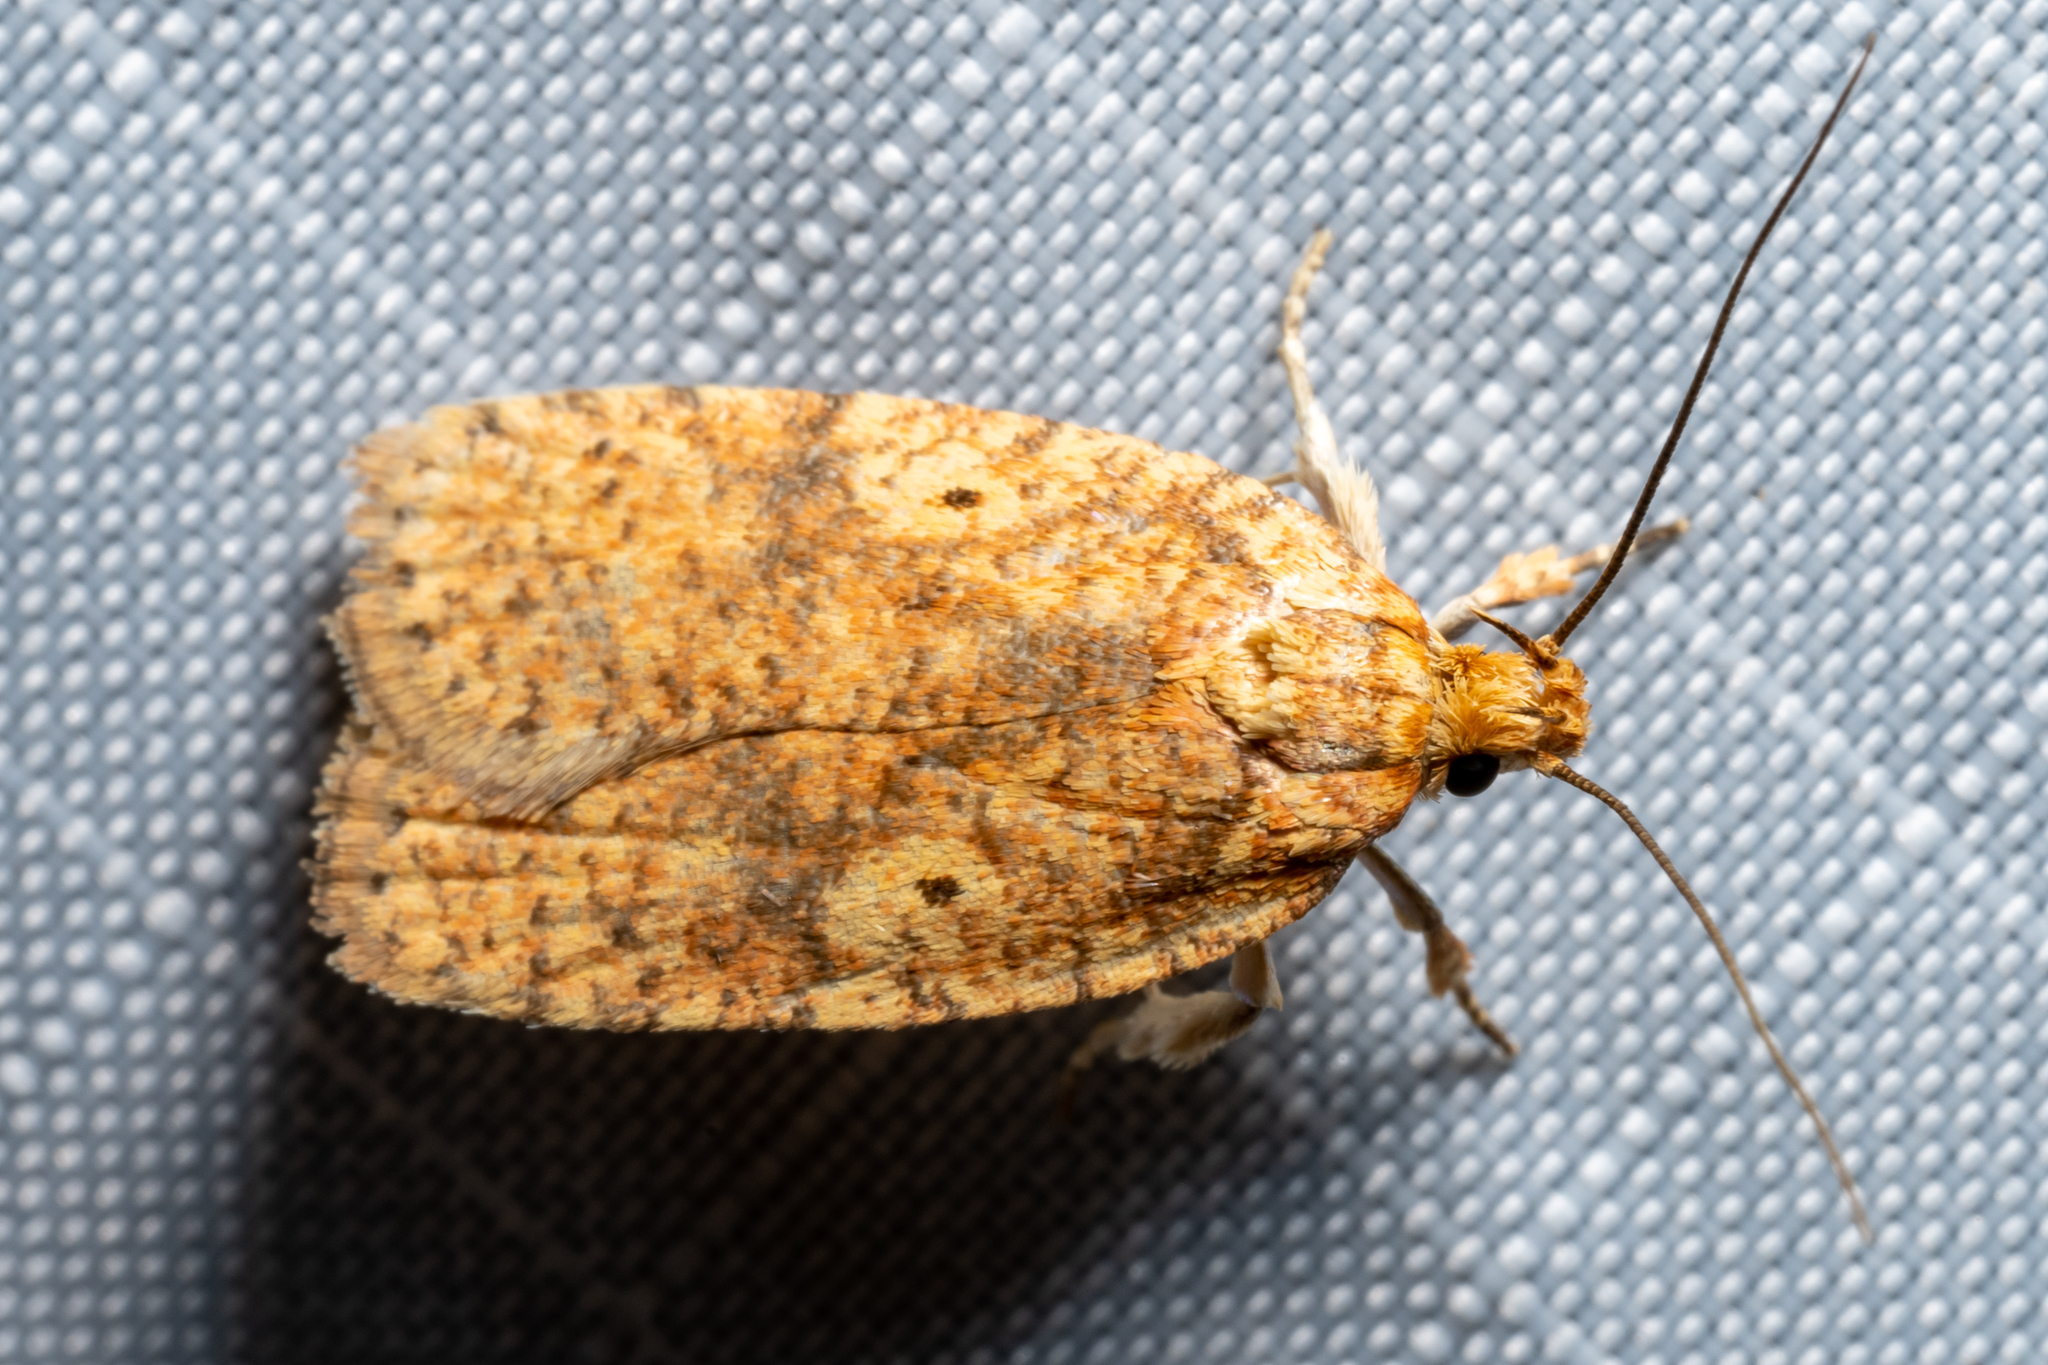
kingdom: Animalia
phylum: Arthropoda
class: Insecta
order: Lepidoptera
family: Depressariidae
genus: Agonopterix
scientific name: Agonopterix robiniella
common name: Four-dotted agonopterix moth
